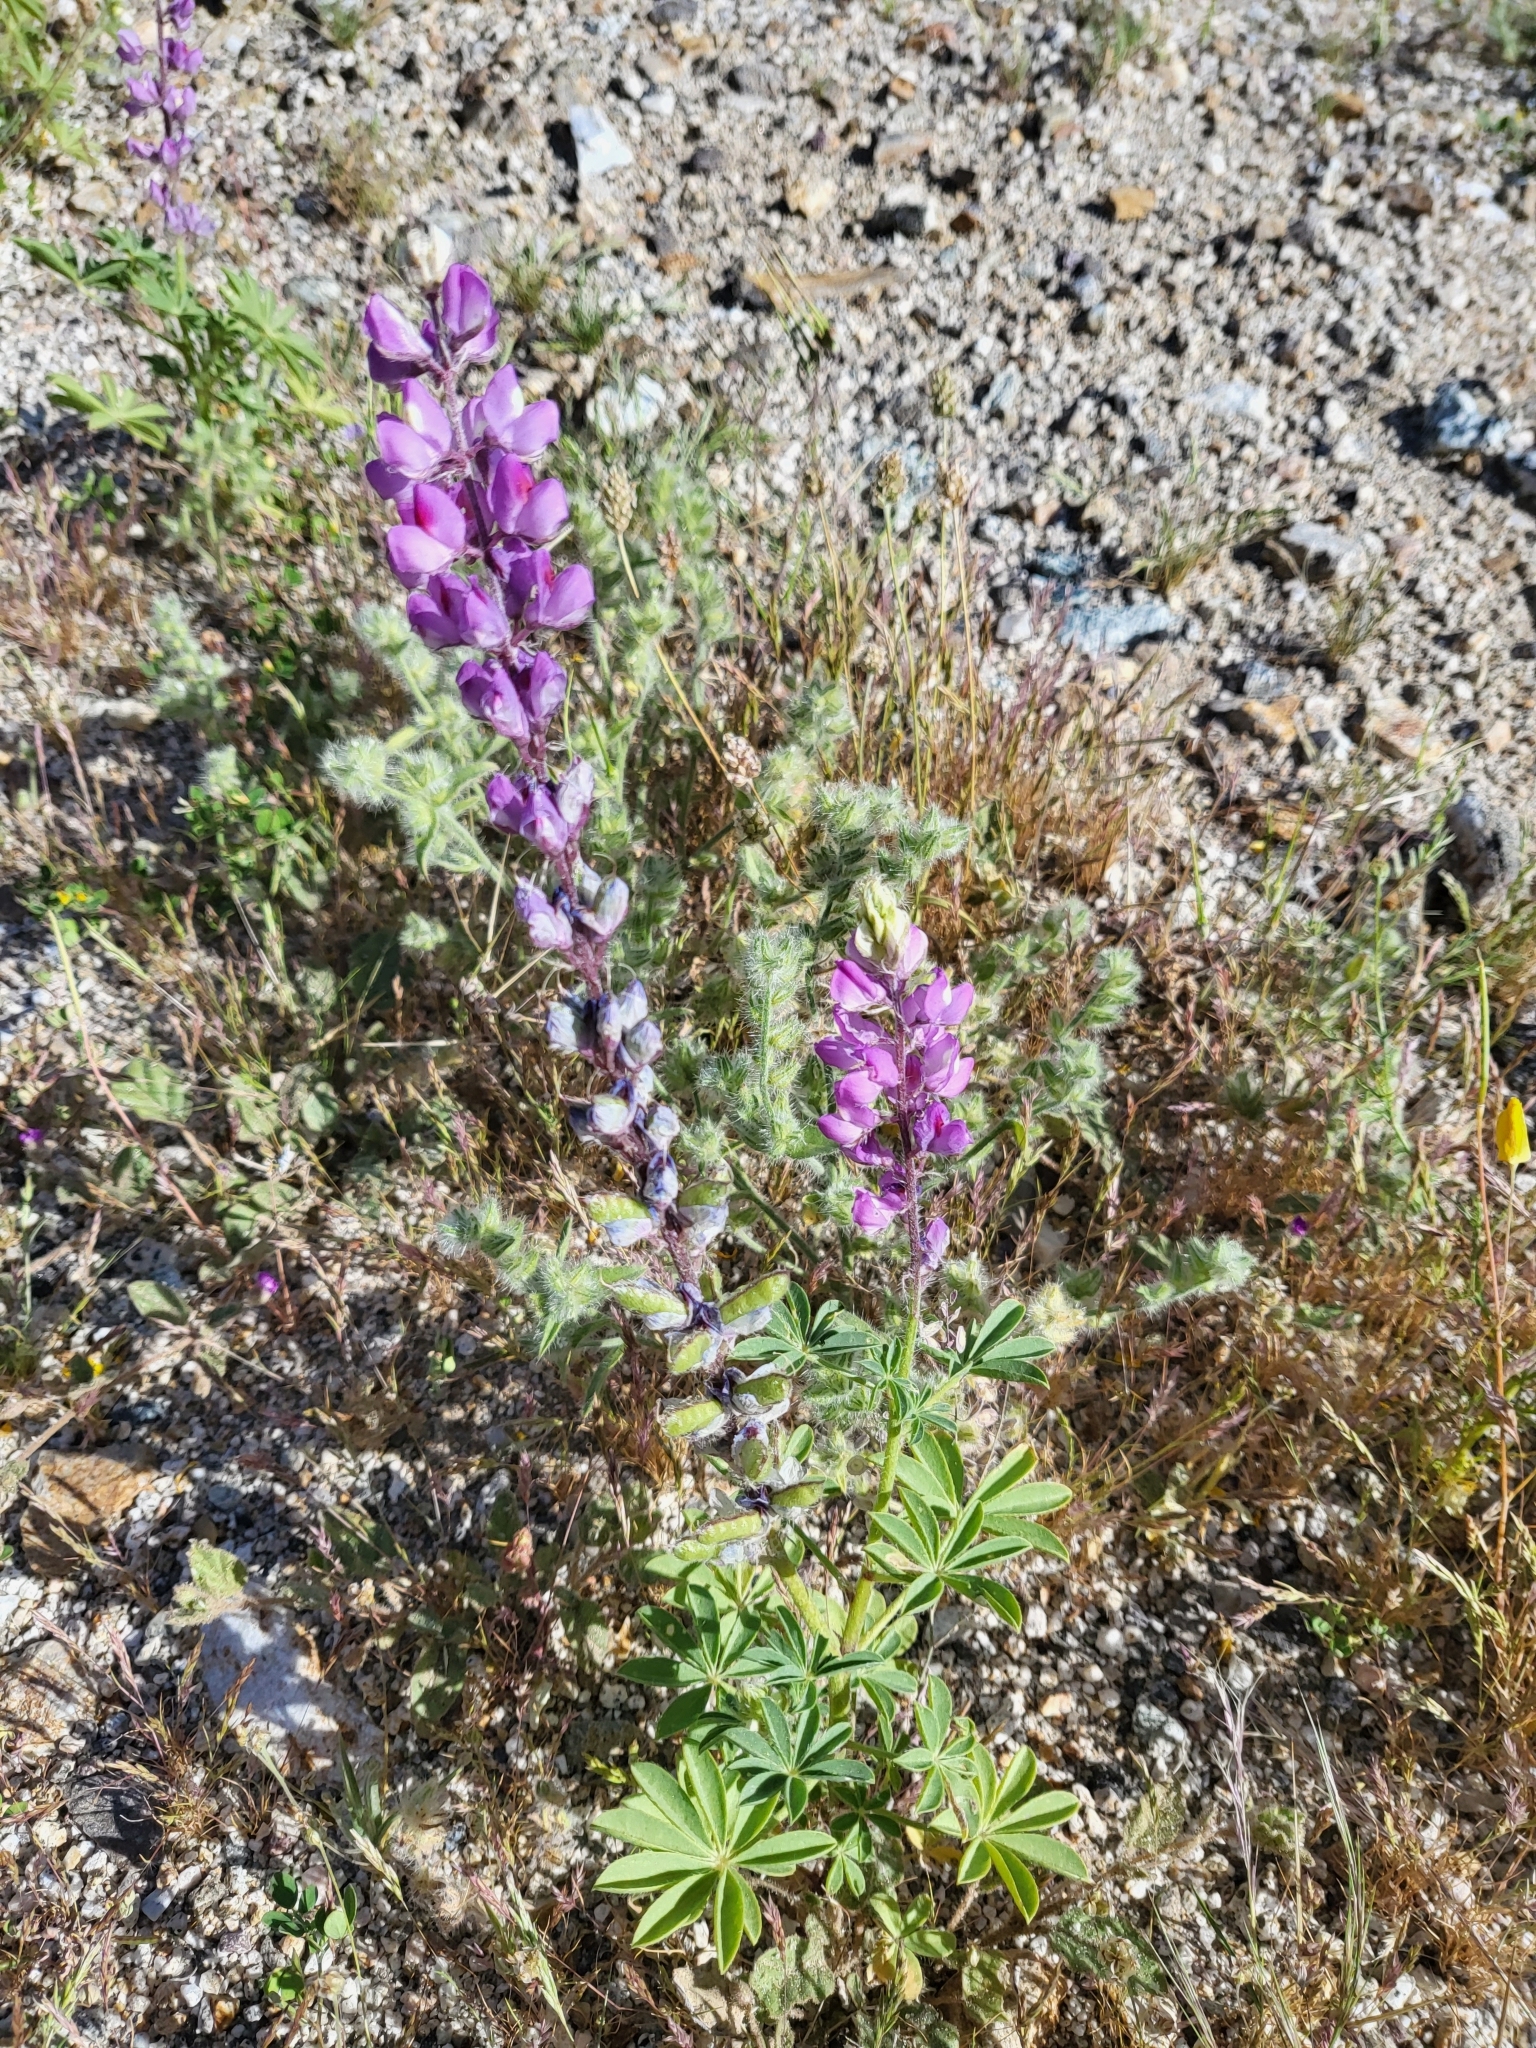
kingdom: Plantae
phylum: Tracheophyta
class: Magnoliopsida
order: Fabales
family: Fabaceae
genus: Lupinus
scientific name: Lupinus arizonicus
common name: Arizona lupine
